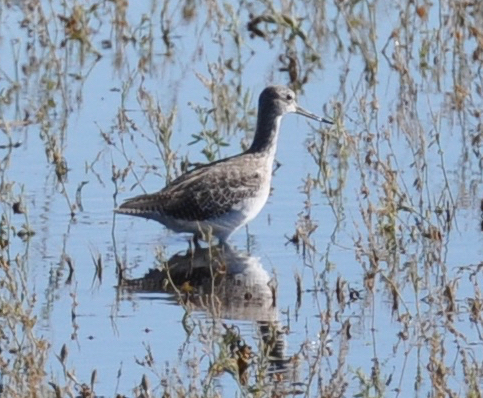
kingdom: Animalia
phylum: Chordata
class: Aves
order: Charadriiformes
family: Scolopacidae
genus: Tringa
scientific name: Tringa melanoleuca
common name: Greater yellowlegs
